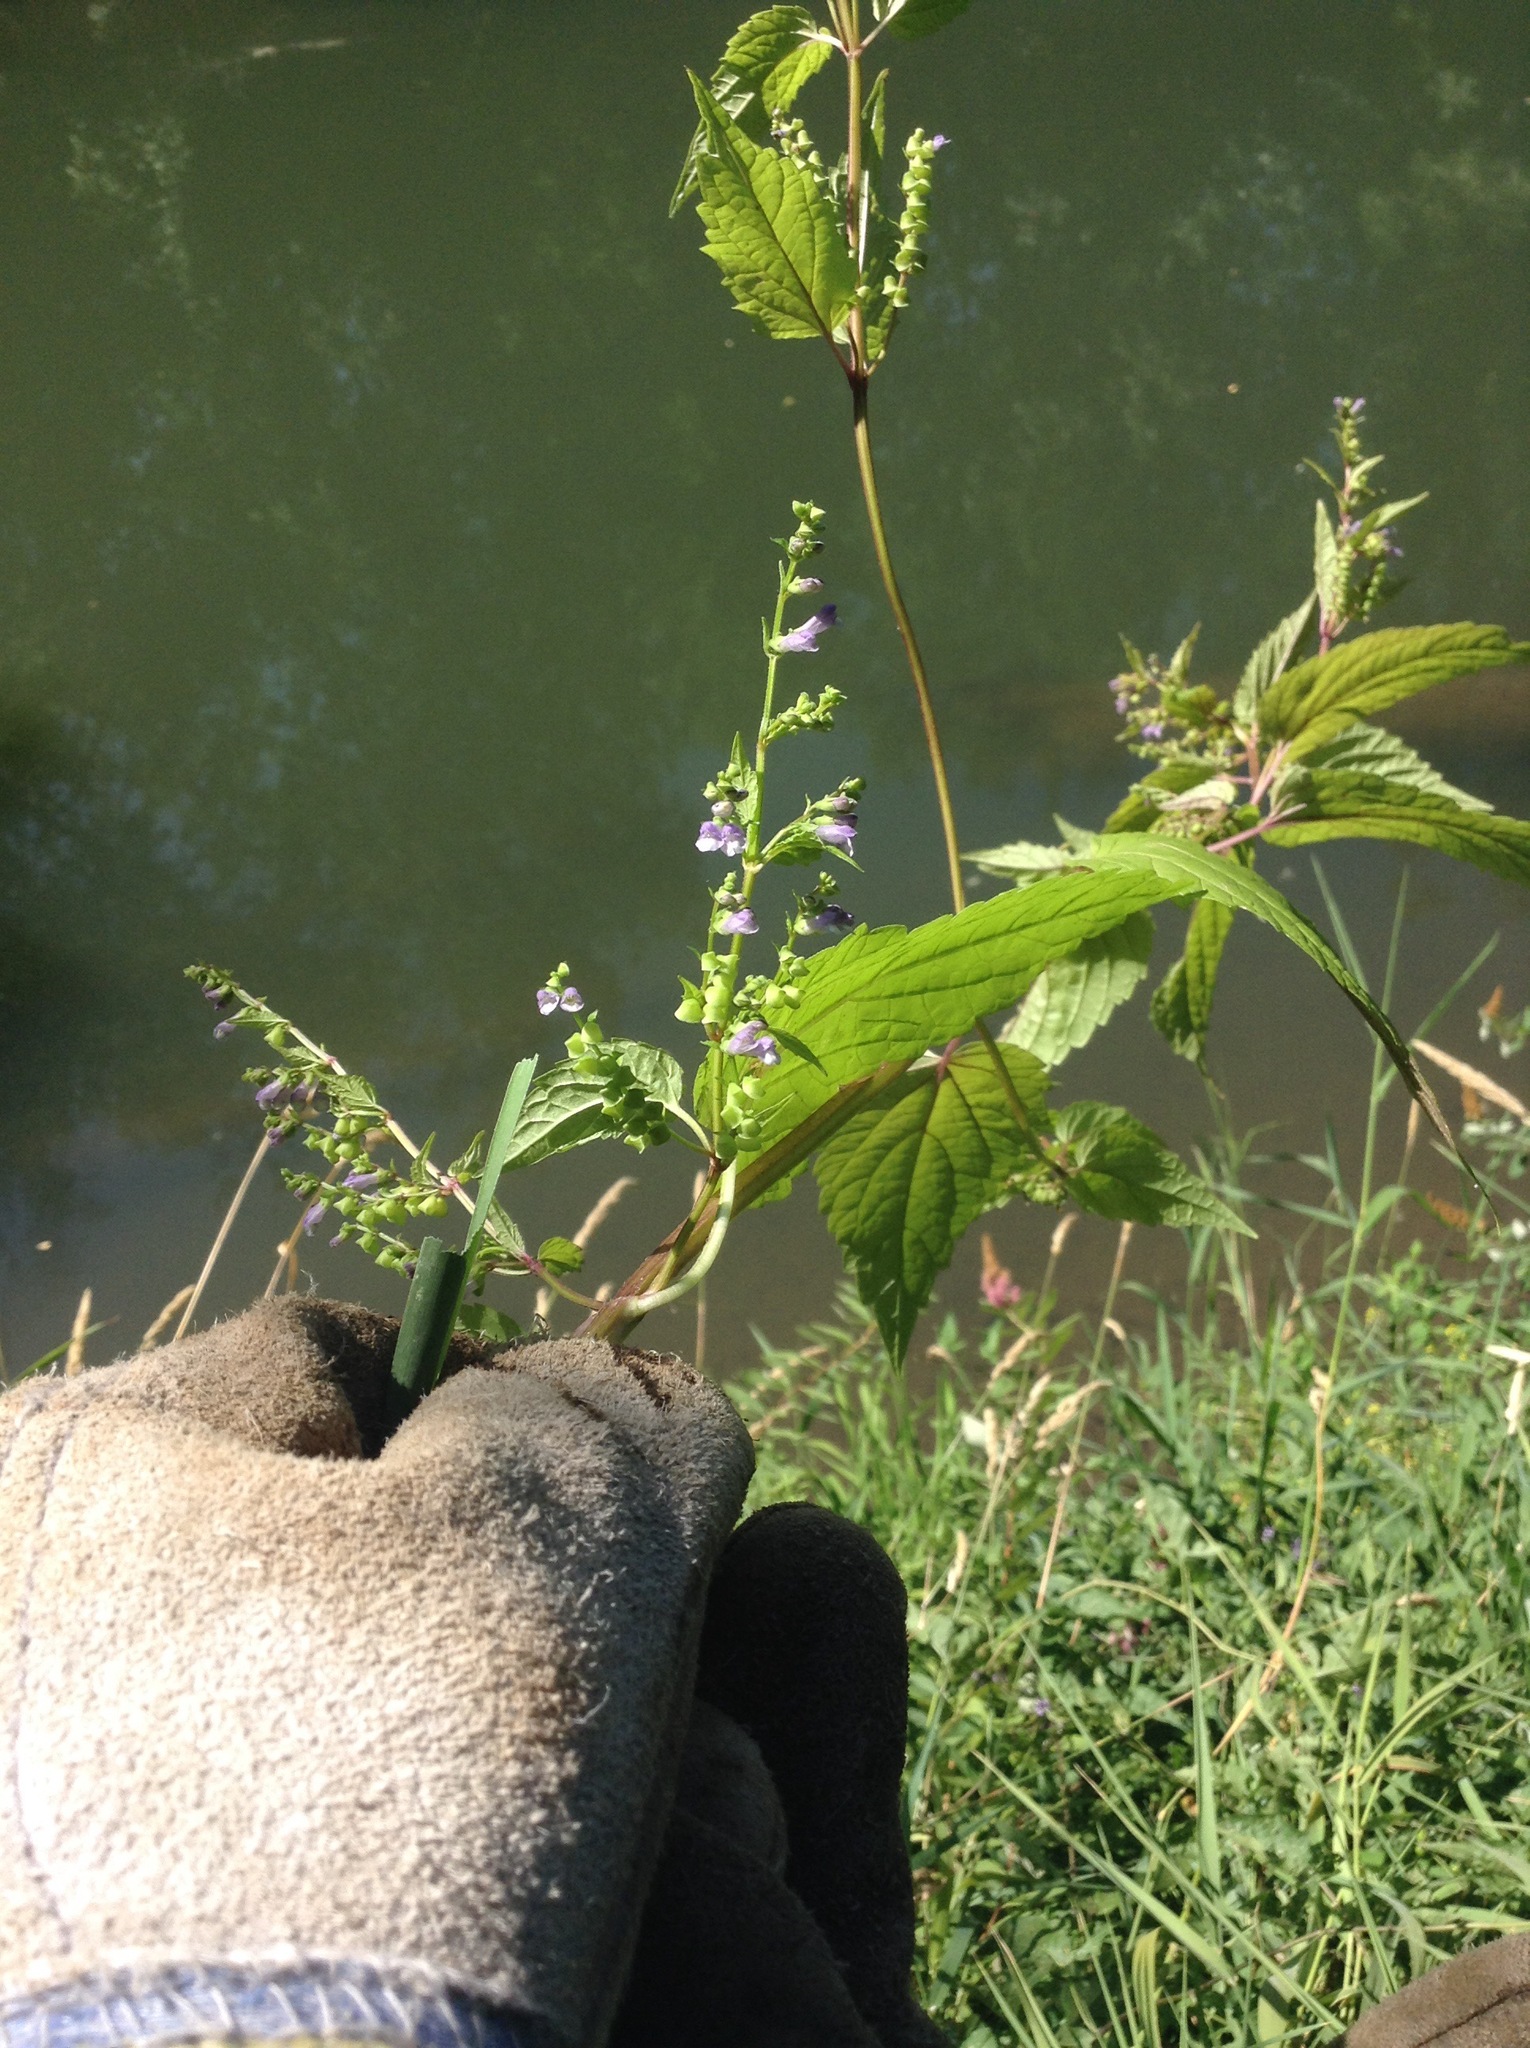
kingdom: Plantae
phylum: Tracheophyta
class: Magnoliopsida
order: Lamiales
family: Lamiaceae
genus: Scutellaria
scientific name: Scutellaria lateriflora
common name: Blue skullcap
